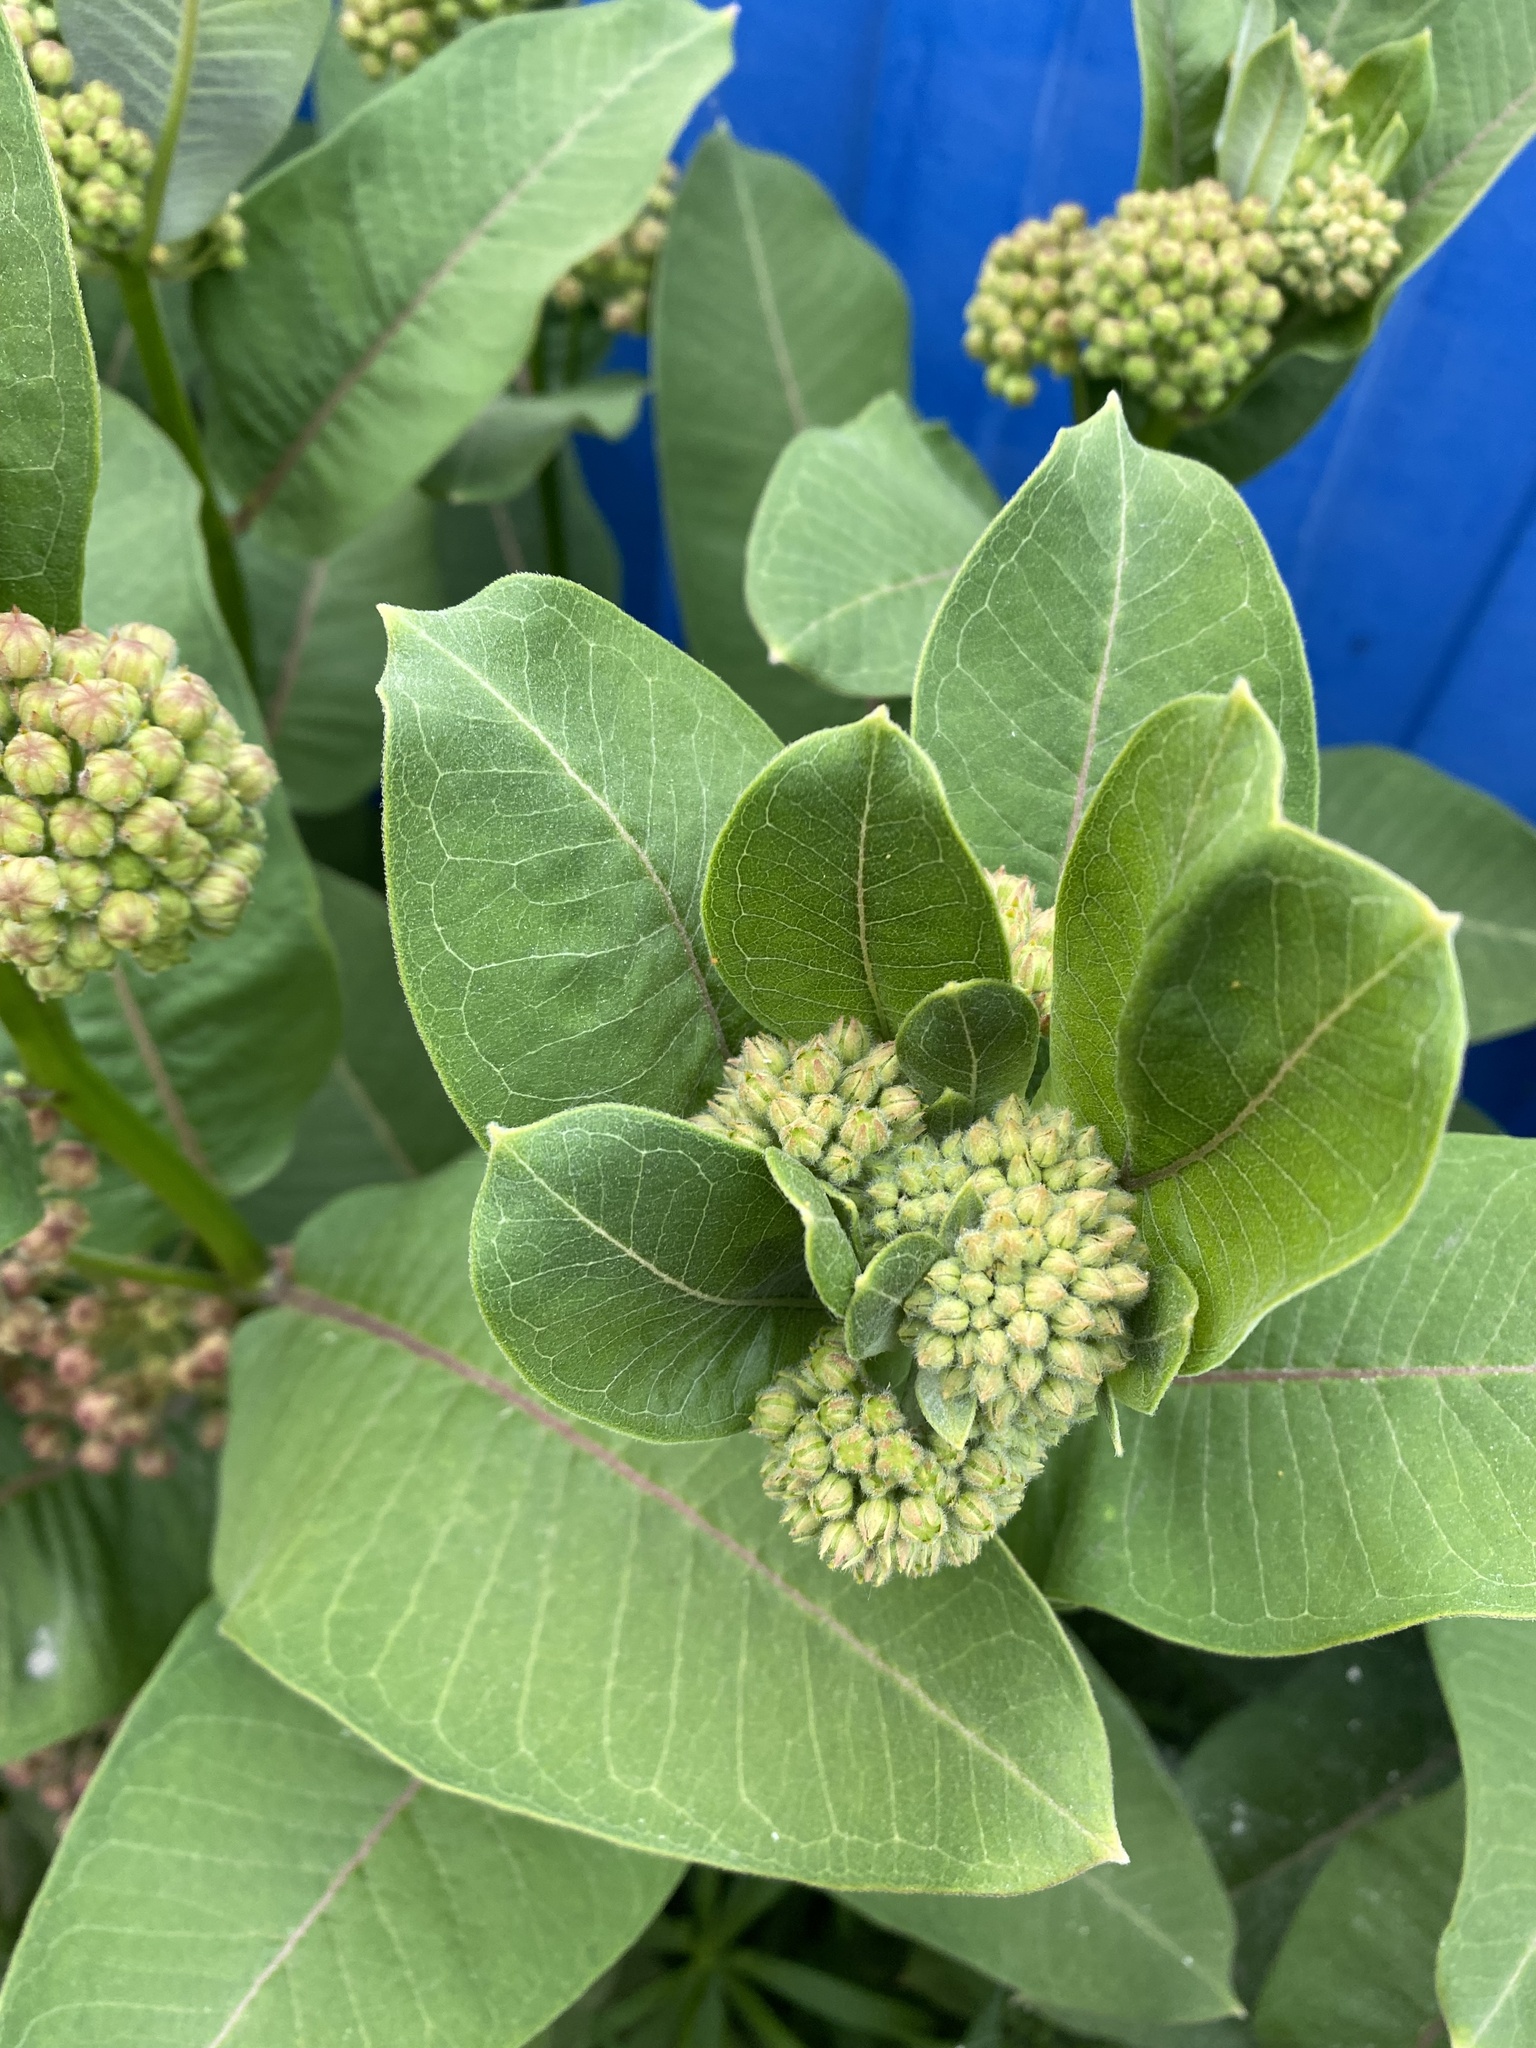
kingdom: Plantae
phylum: Tracheophyta
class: Magnoliopsida
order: Gentianales
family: Apocynaceae
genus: Asclepias
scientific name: Asclepias syriaca
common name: Common milkweed
